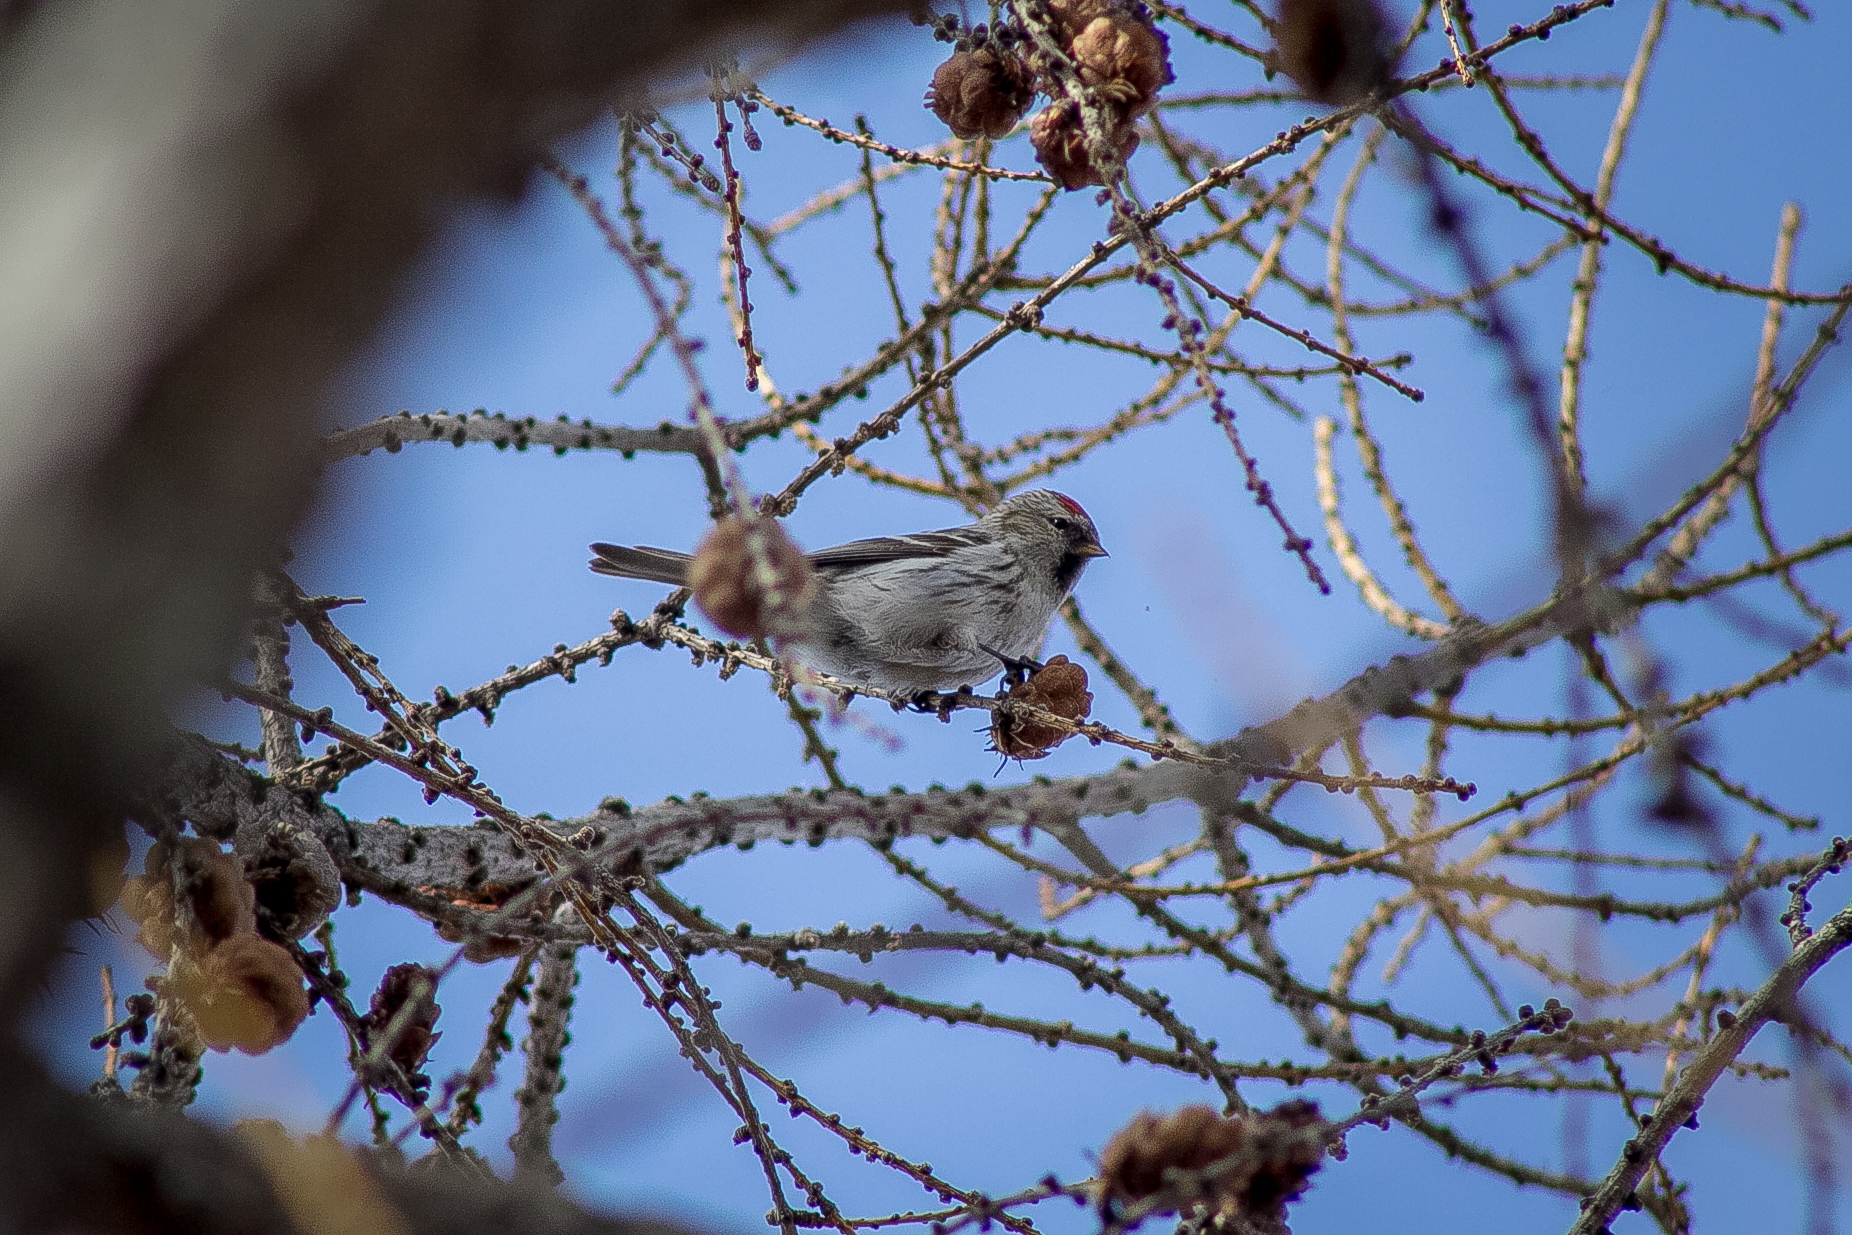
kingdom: Animalia
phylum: Chordata
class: Aves
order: Passeriformes
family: Fringillidae
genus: Acanthis
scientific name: Acanthis hornemanni
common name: Arctic redpoll
